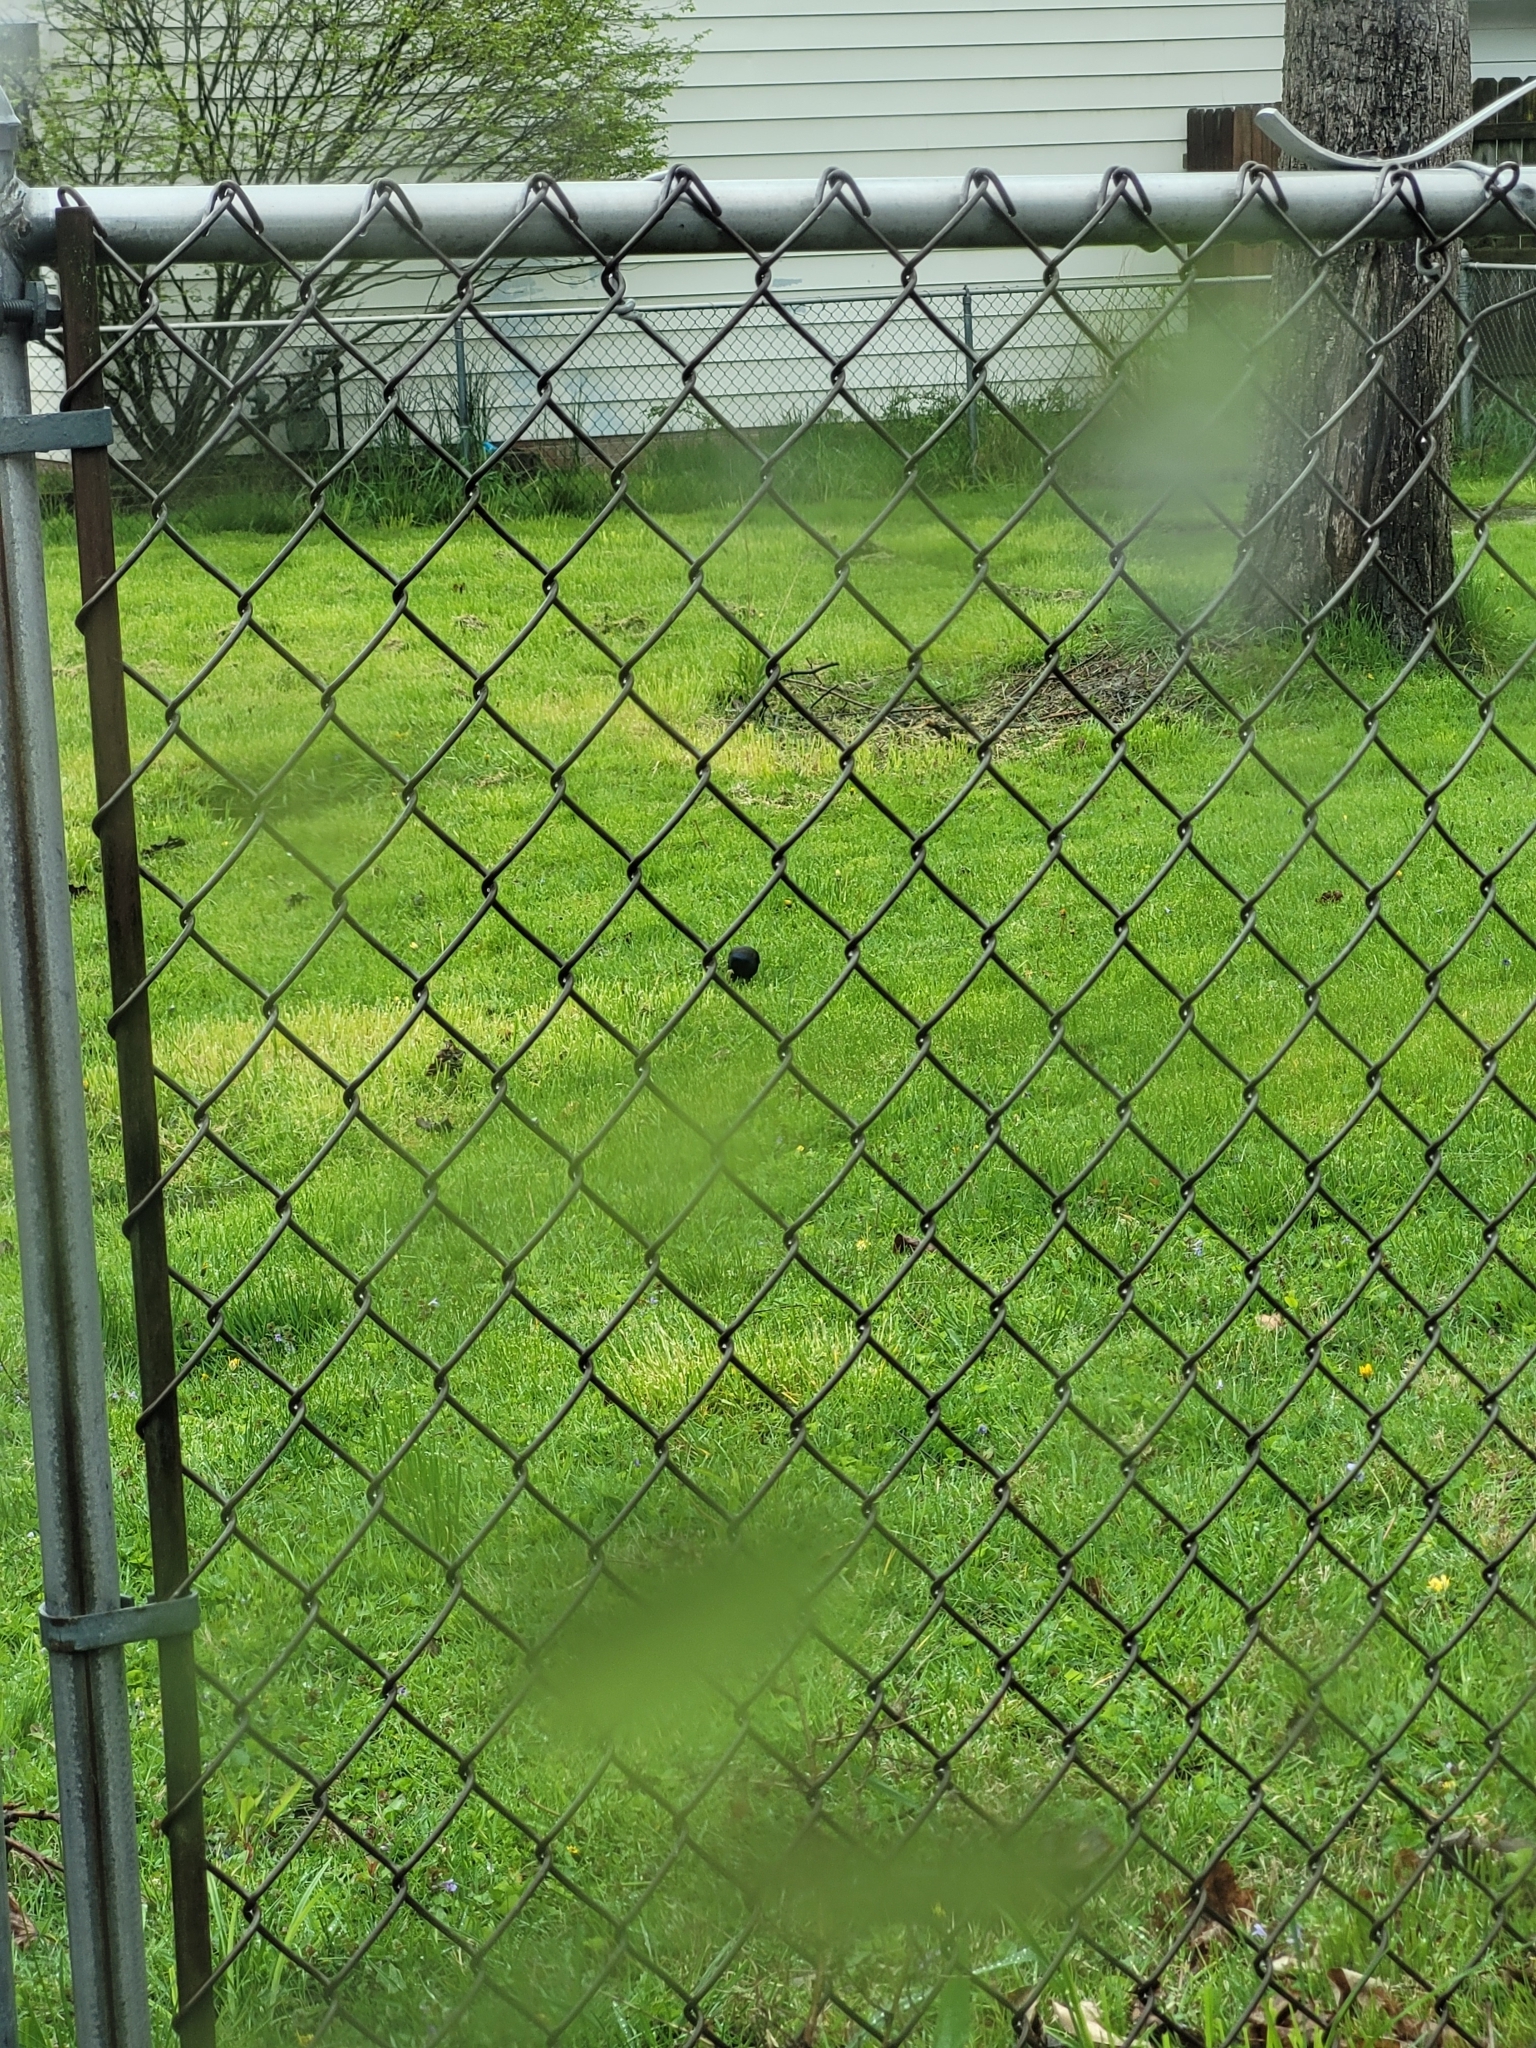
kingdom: Animalia
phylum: Chordata
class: Aves
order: Passeriformes
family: Icteridae
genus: Quiscalus
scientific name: Quiscalus quiscula
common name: Common grackle
